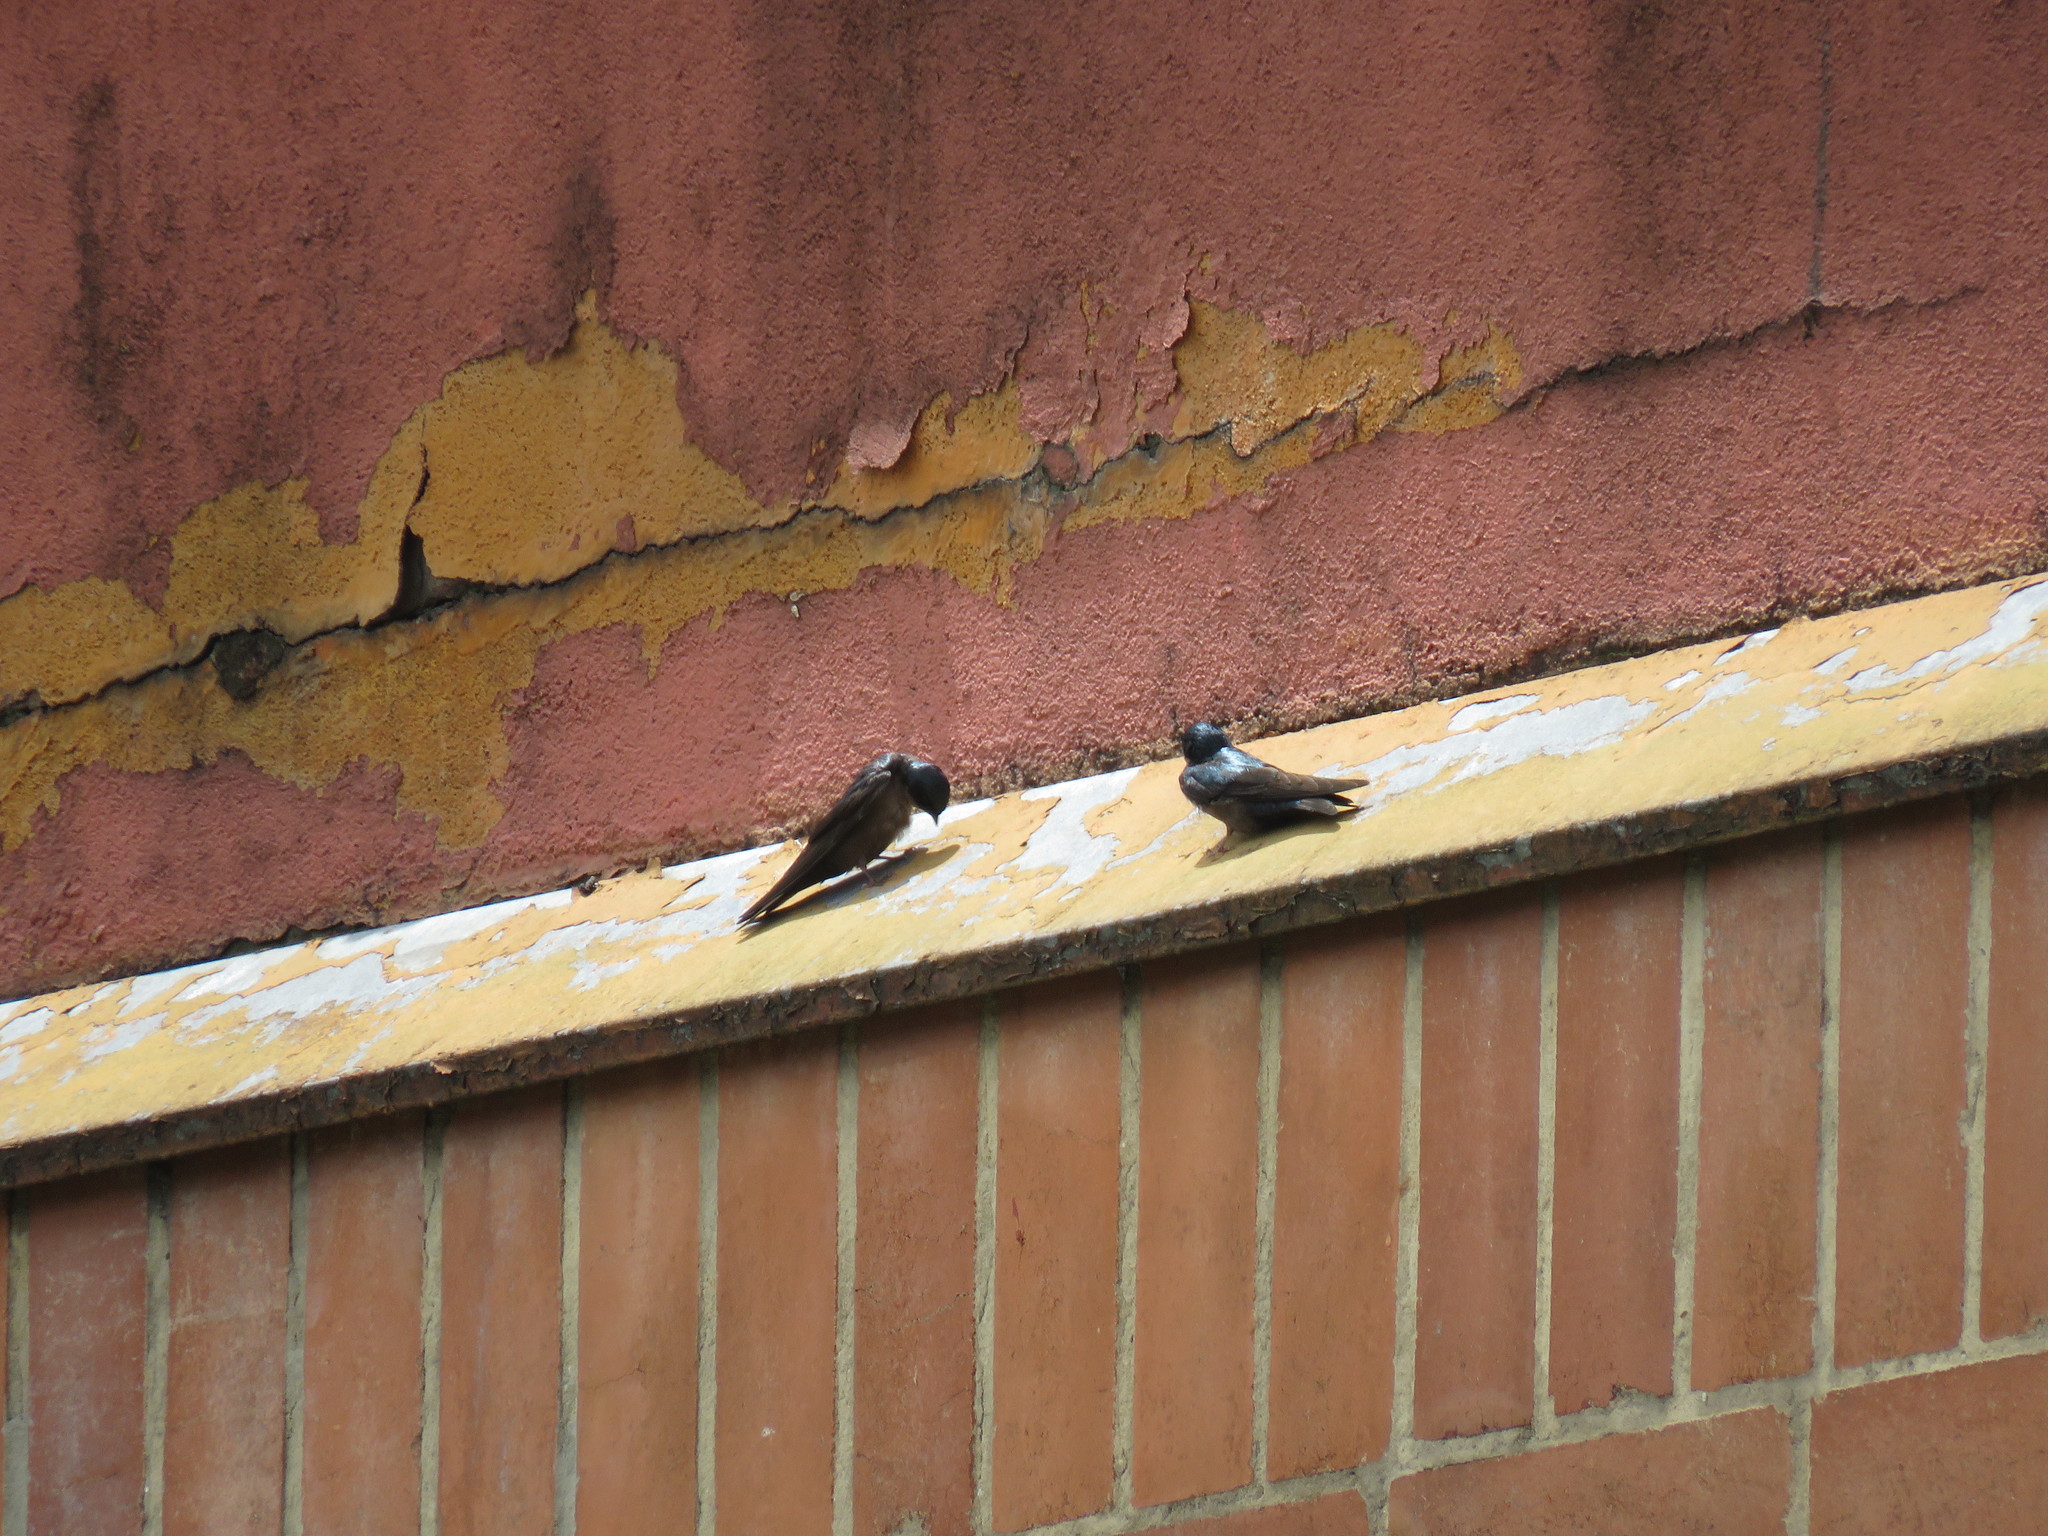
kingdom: Animalia
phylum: Chordata
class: Aves
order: Passeriformes
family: Hirundinidae
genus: Notiochelidon
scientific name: Notiochelidon murina
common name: Brown-bellied swallow
